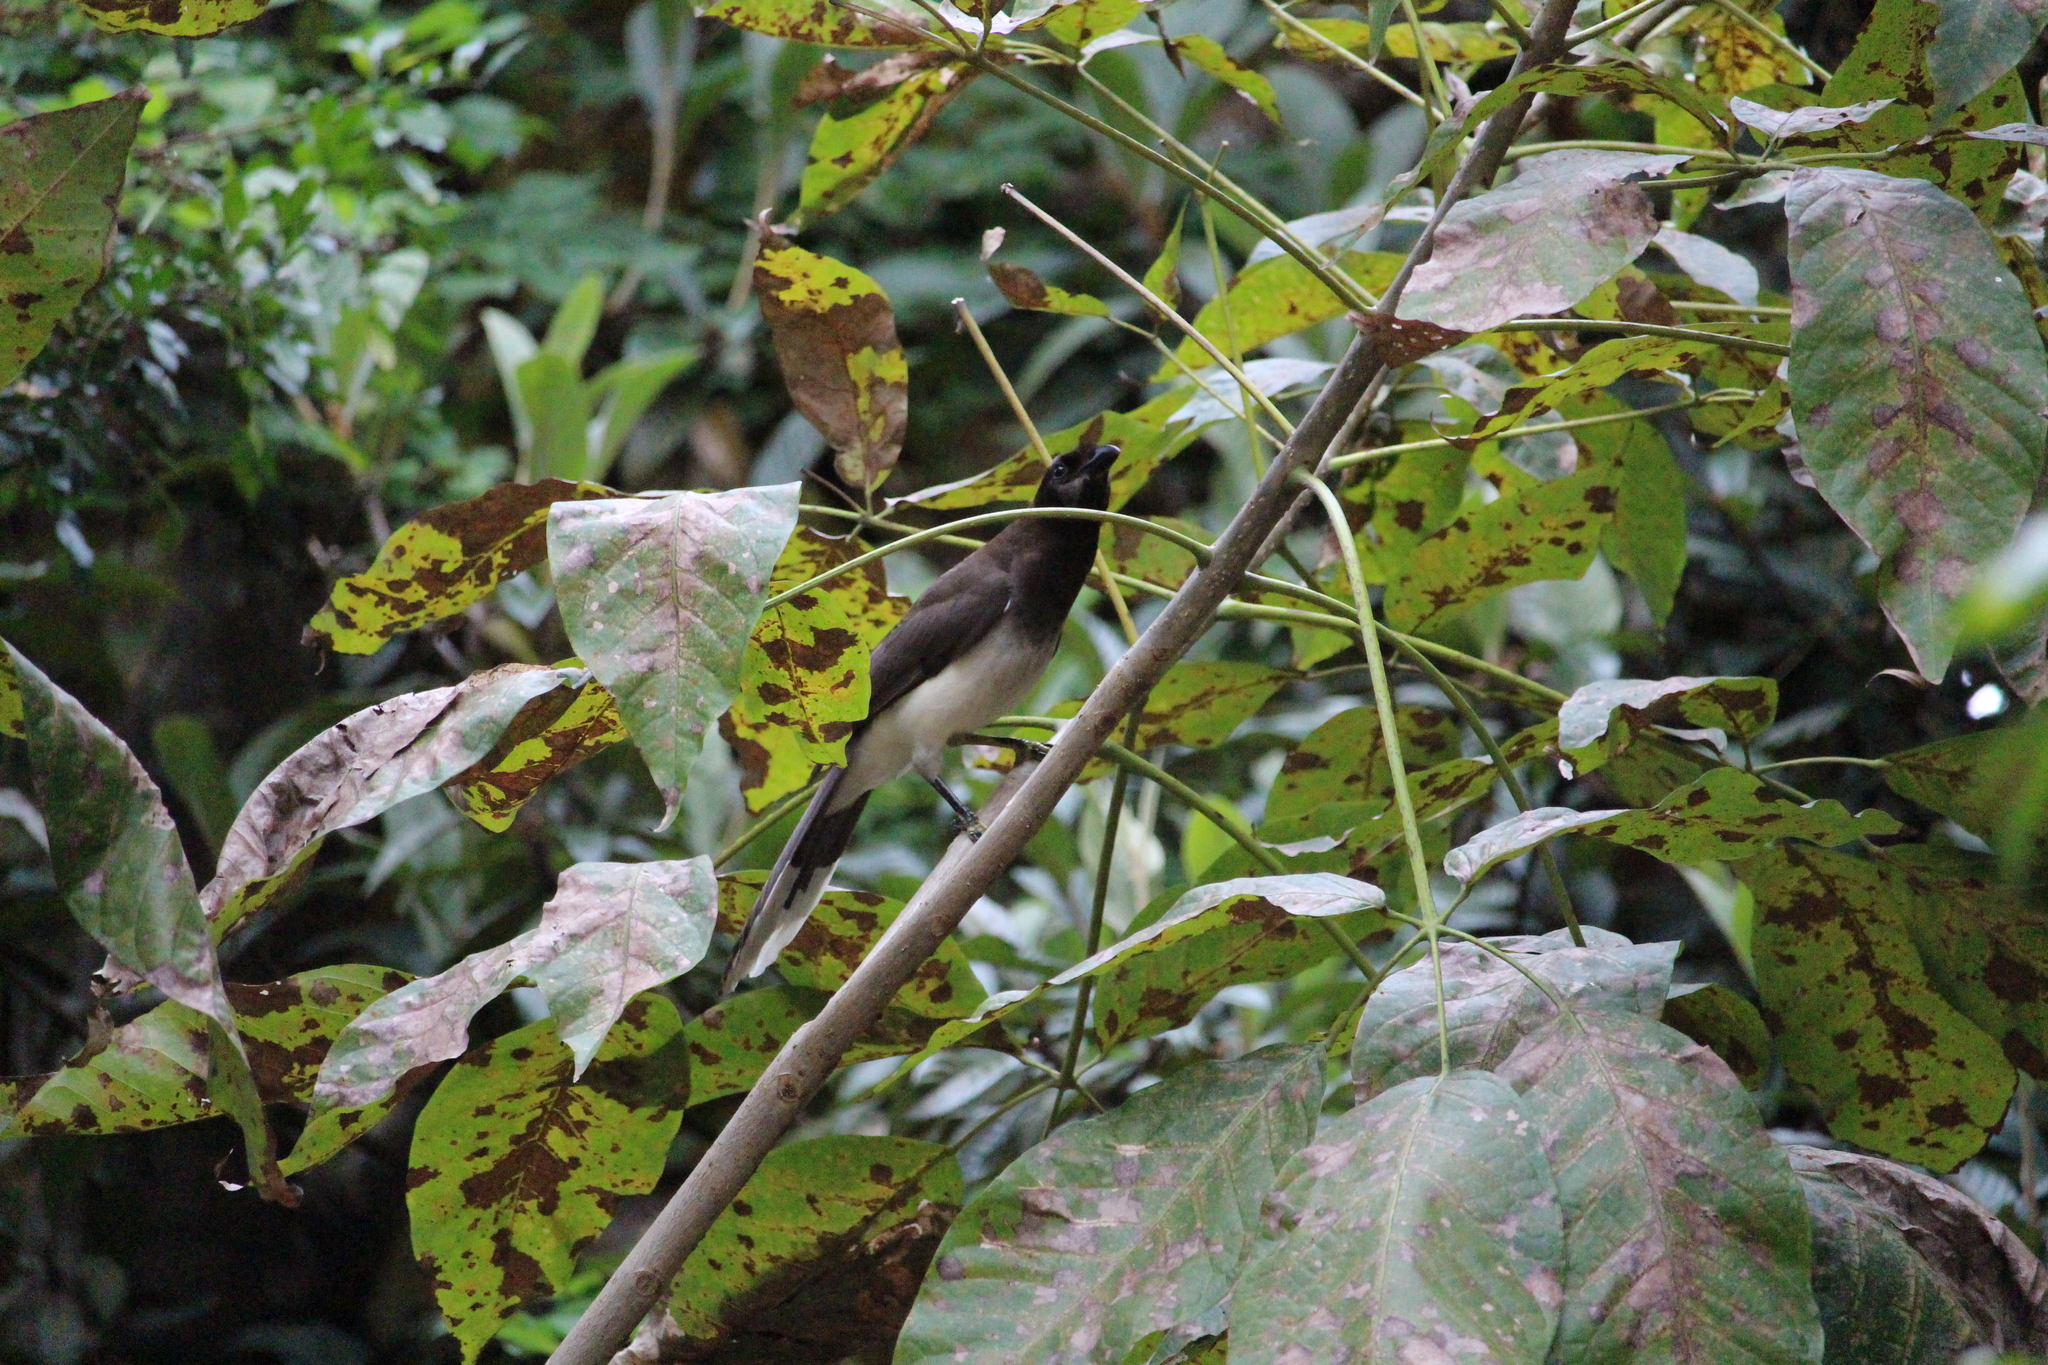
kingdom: Animalia
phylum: Chordata
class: Aves
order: Passeriformes
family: Corvidae
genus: Psilorhinus
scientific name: Psilorhinus morio
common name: Brown jay
